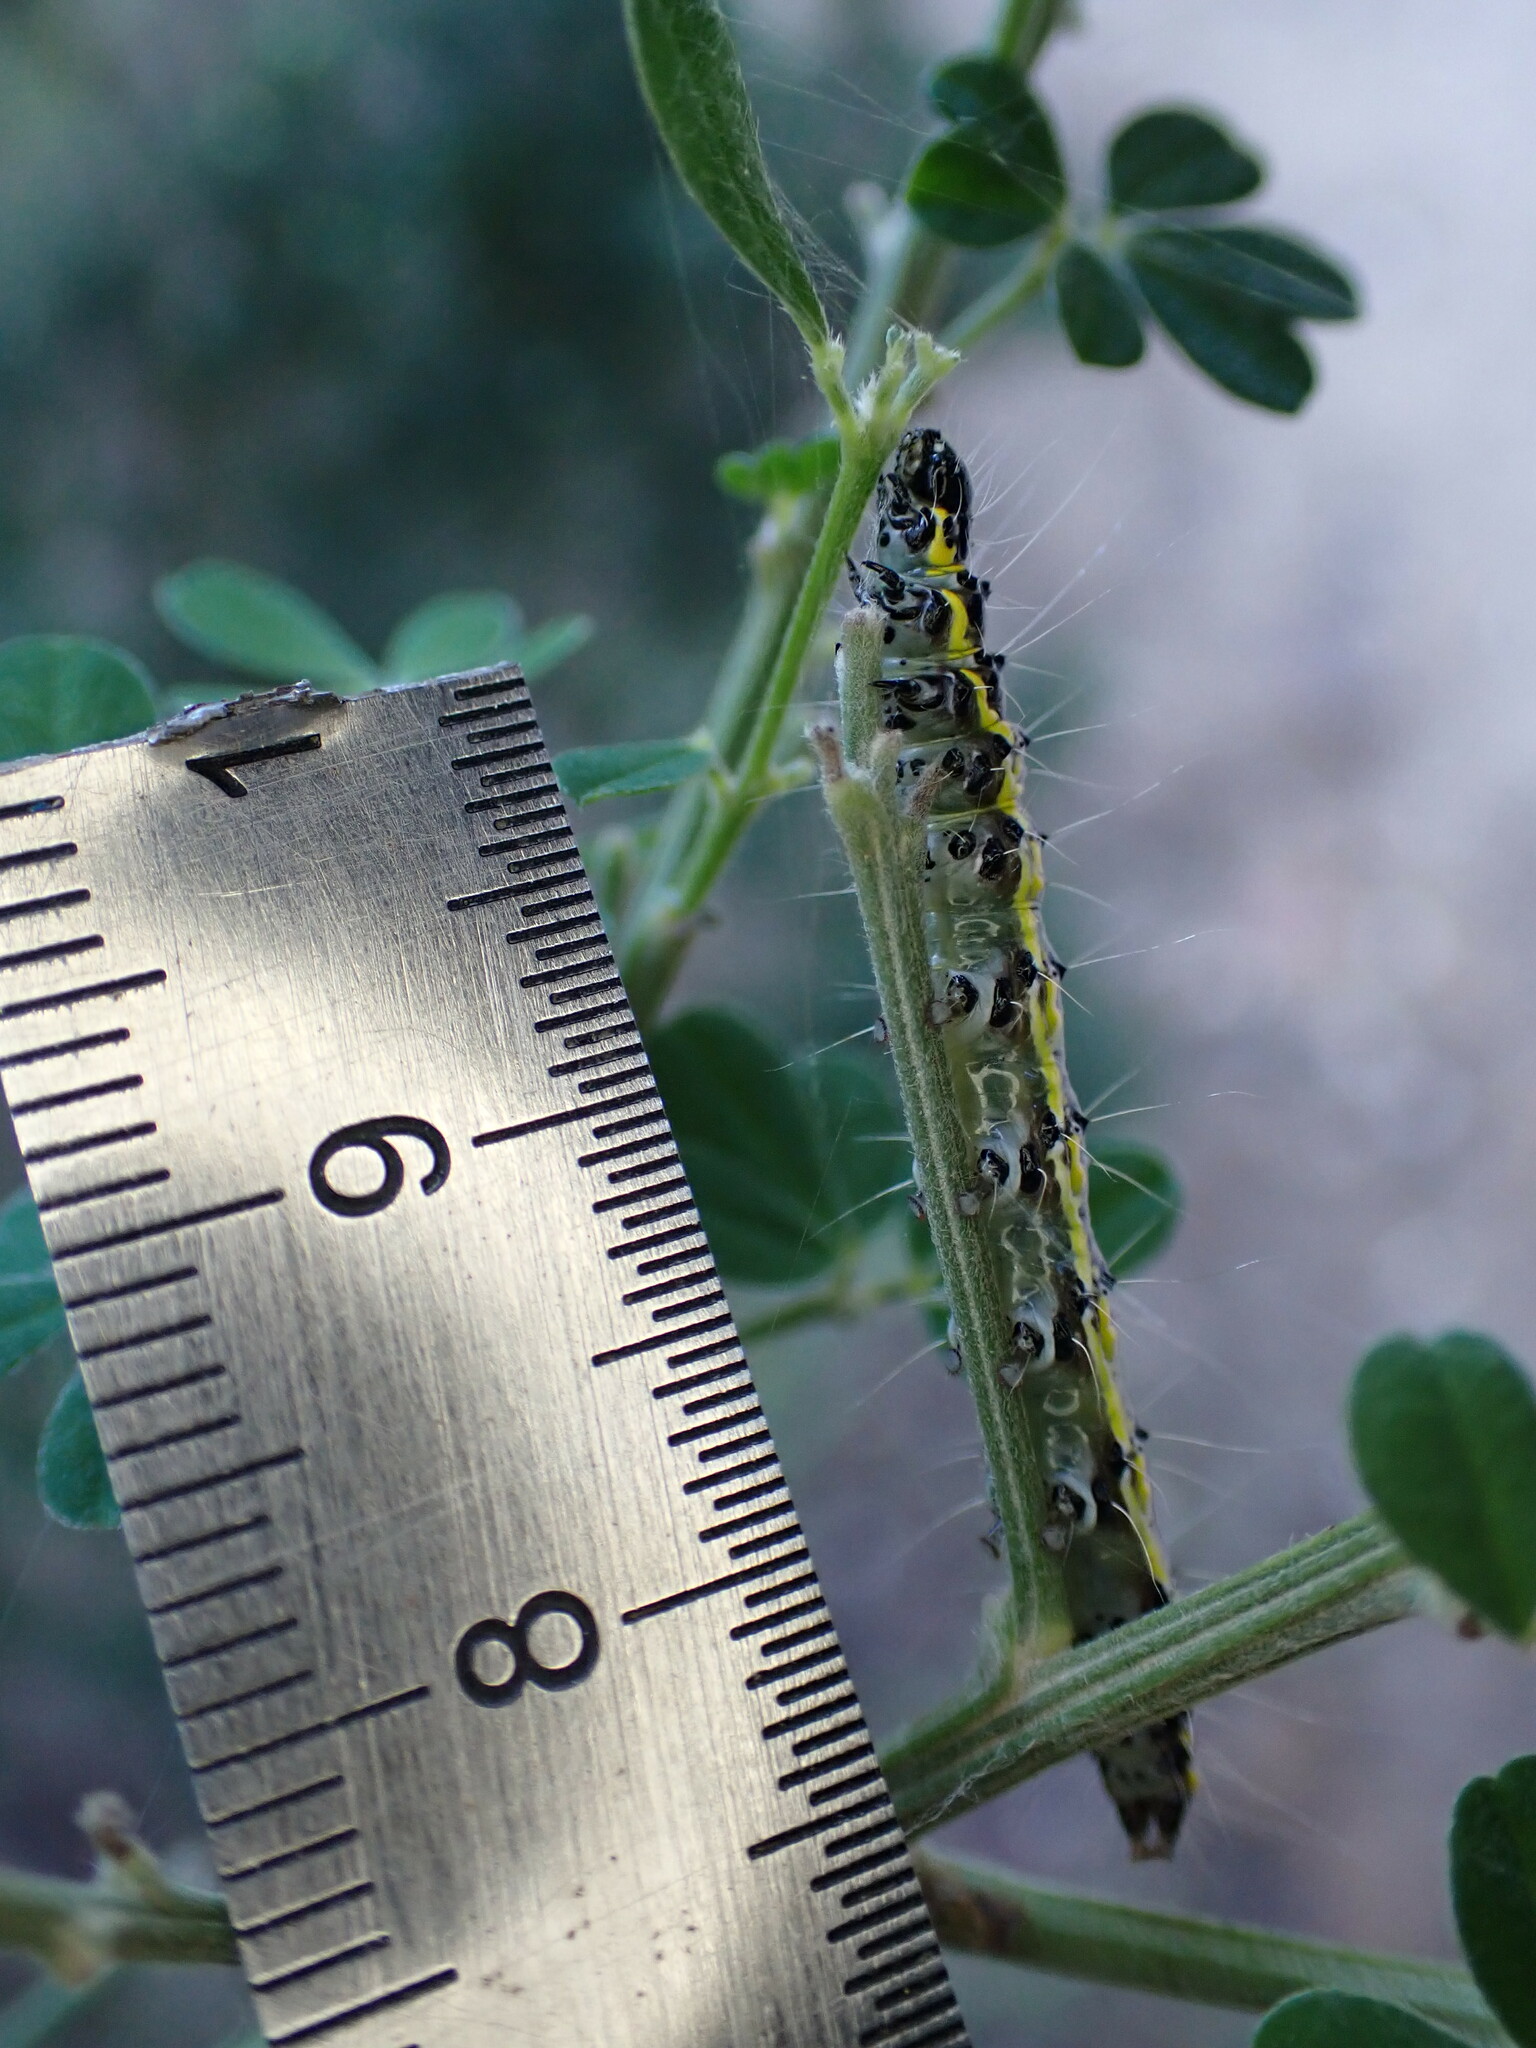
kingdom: Animalia
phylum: Arthropoda
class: Insecta
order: Lepidoptera
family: Crambidae
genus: Uresiphita
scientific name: Uresiphita gilvata
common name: Yellow-underwing pearl
